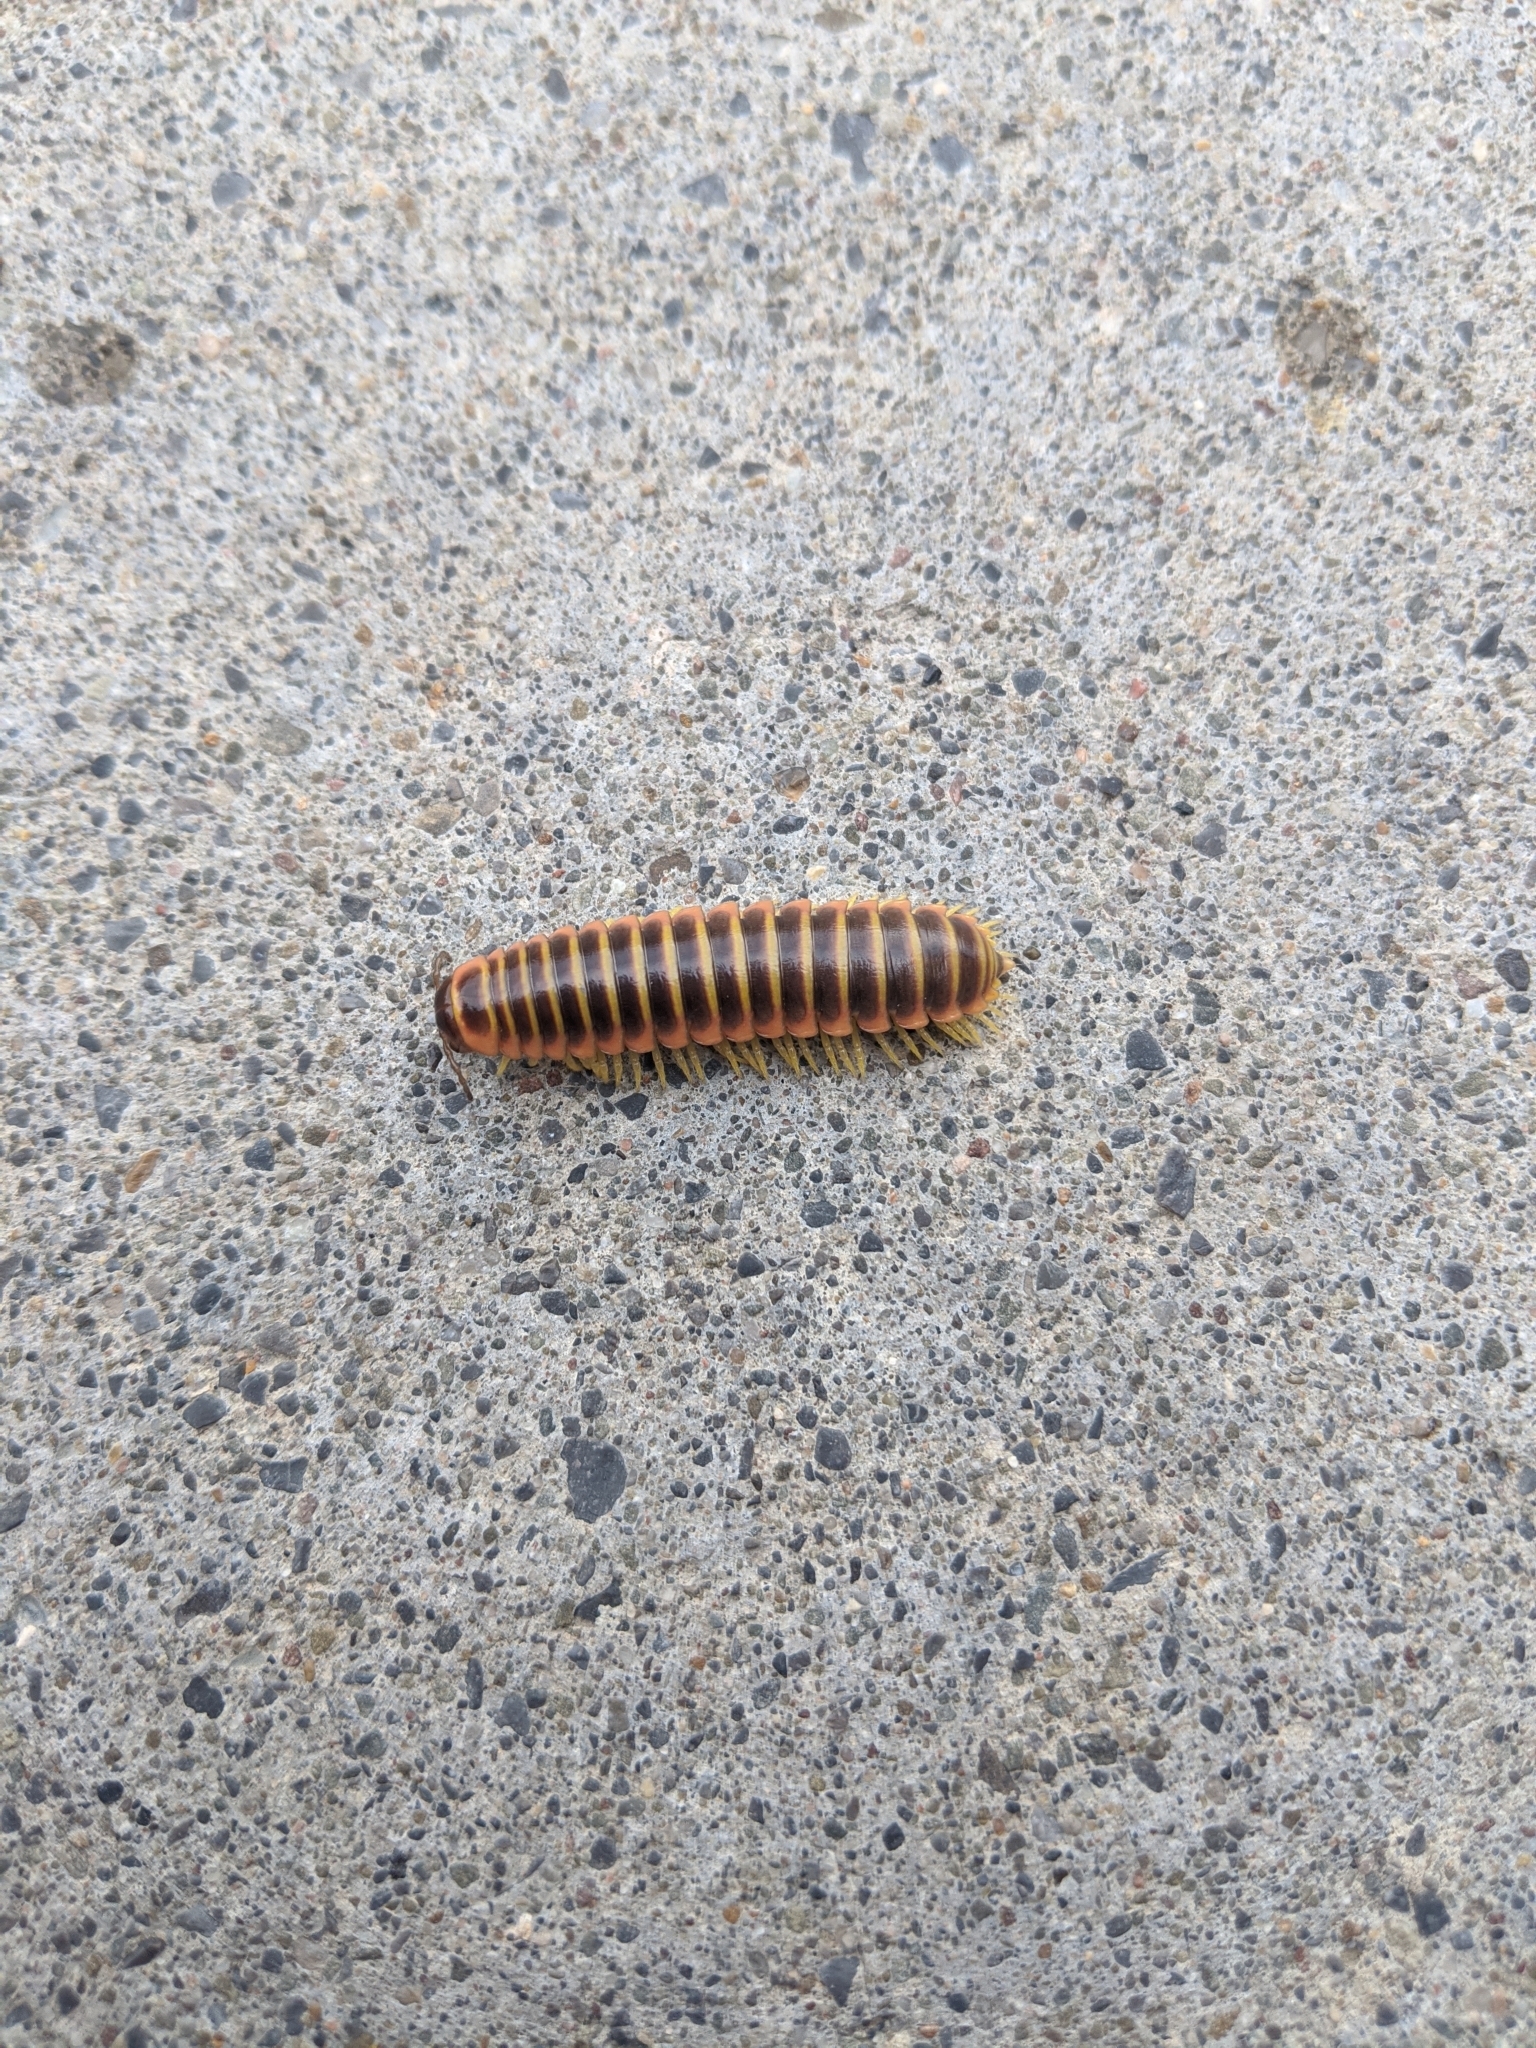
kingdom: Animalia
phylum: Arthropoda
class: Diplopoda
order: Polydesmida
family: Xystodesmidae
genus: Apheloria
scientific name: Apheloria virginiensis
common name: Black-and-gold flat millipede
